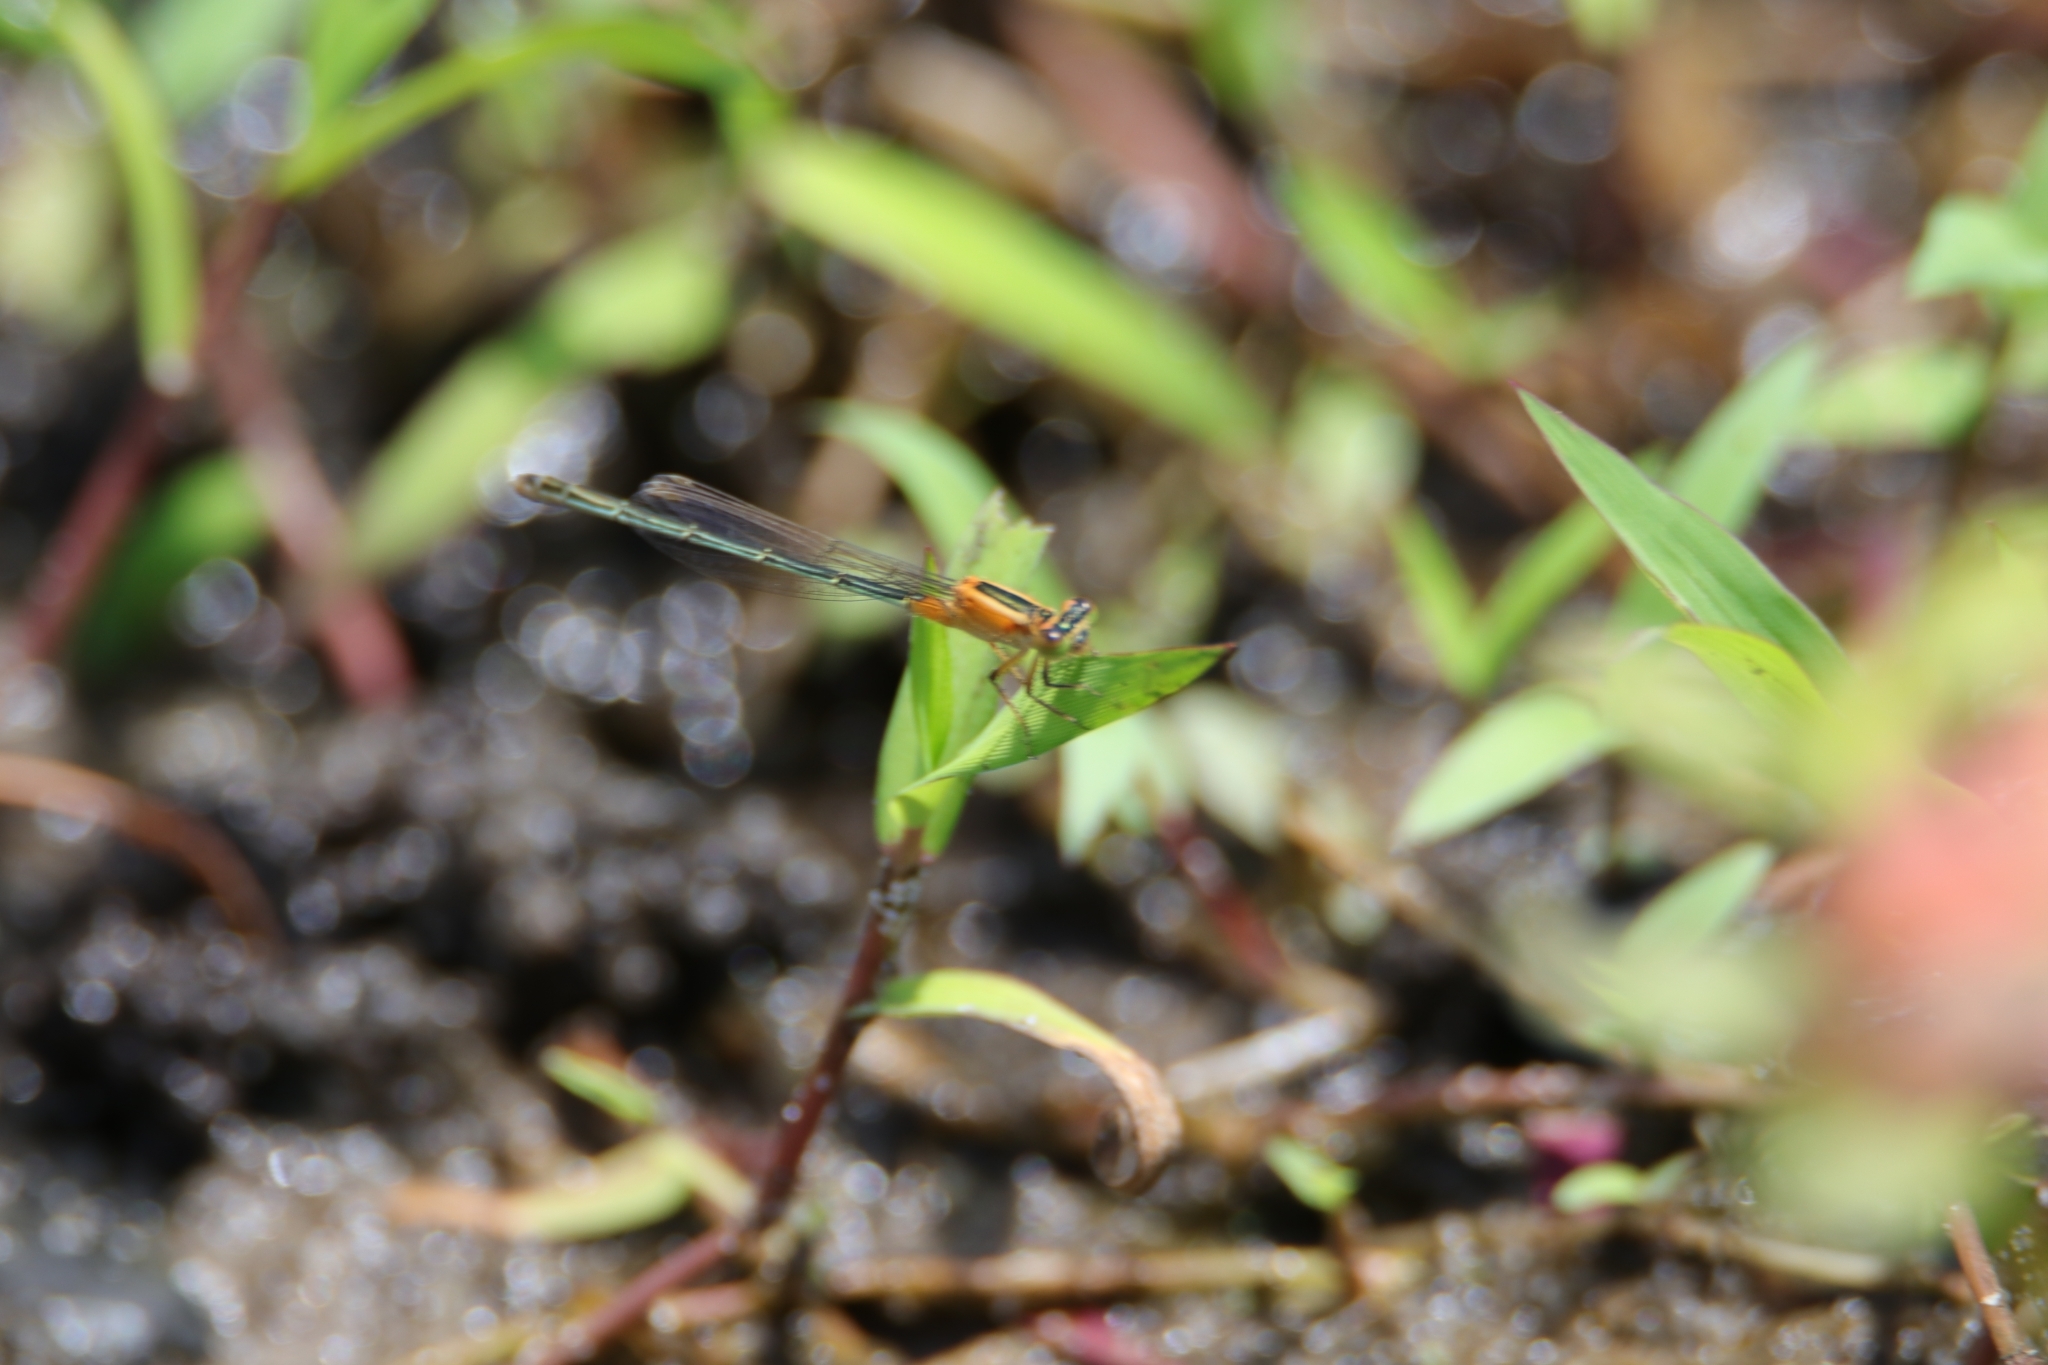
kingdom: Animalia
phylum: Arthropoda
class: Insecta
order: Odonata
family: Coenagrionidae
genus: Ischnura
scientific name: Ischnura senegalensis
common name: Tropical bluetail
